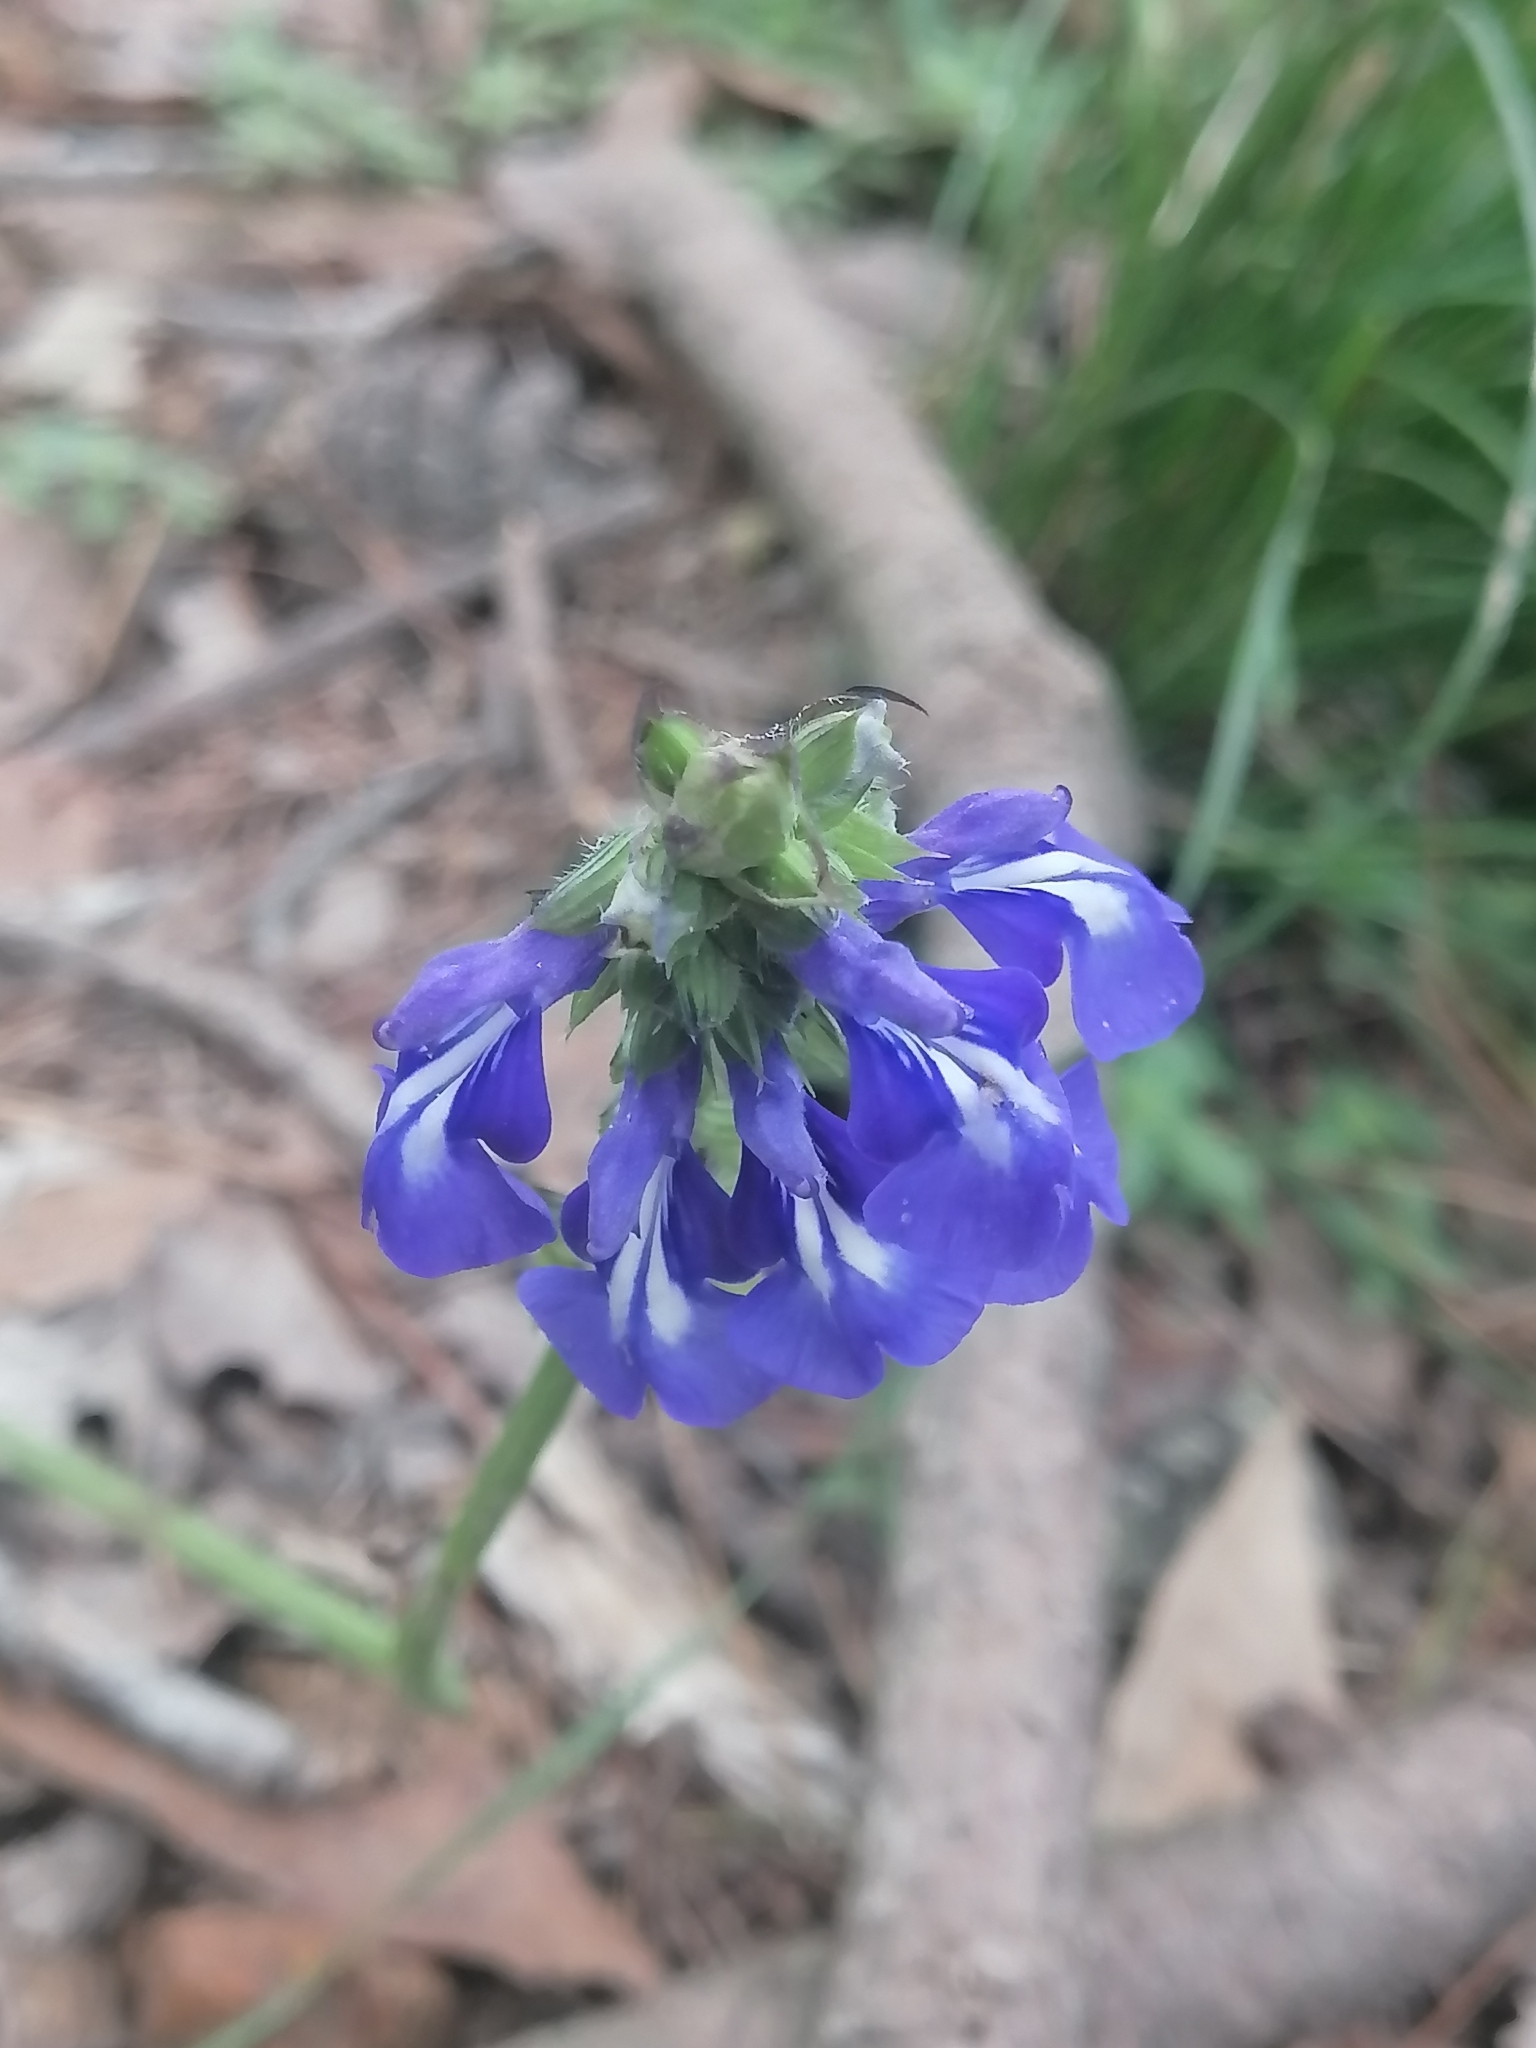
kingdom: Plantae
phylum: Tracheophyta
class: Magnoliopsida
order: Lamiales
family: Lamiaceae
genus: Salvia
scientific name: Salvia prunelloides
